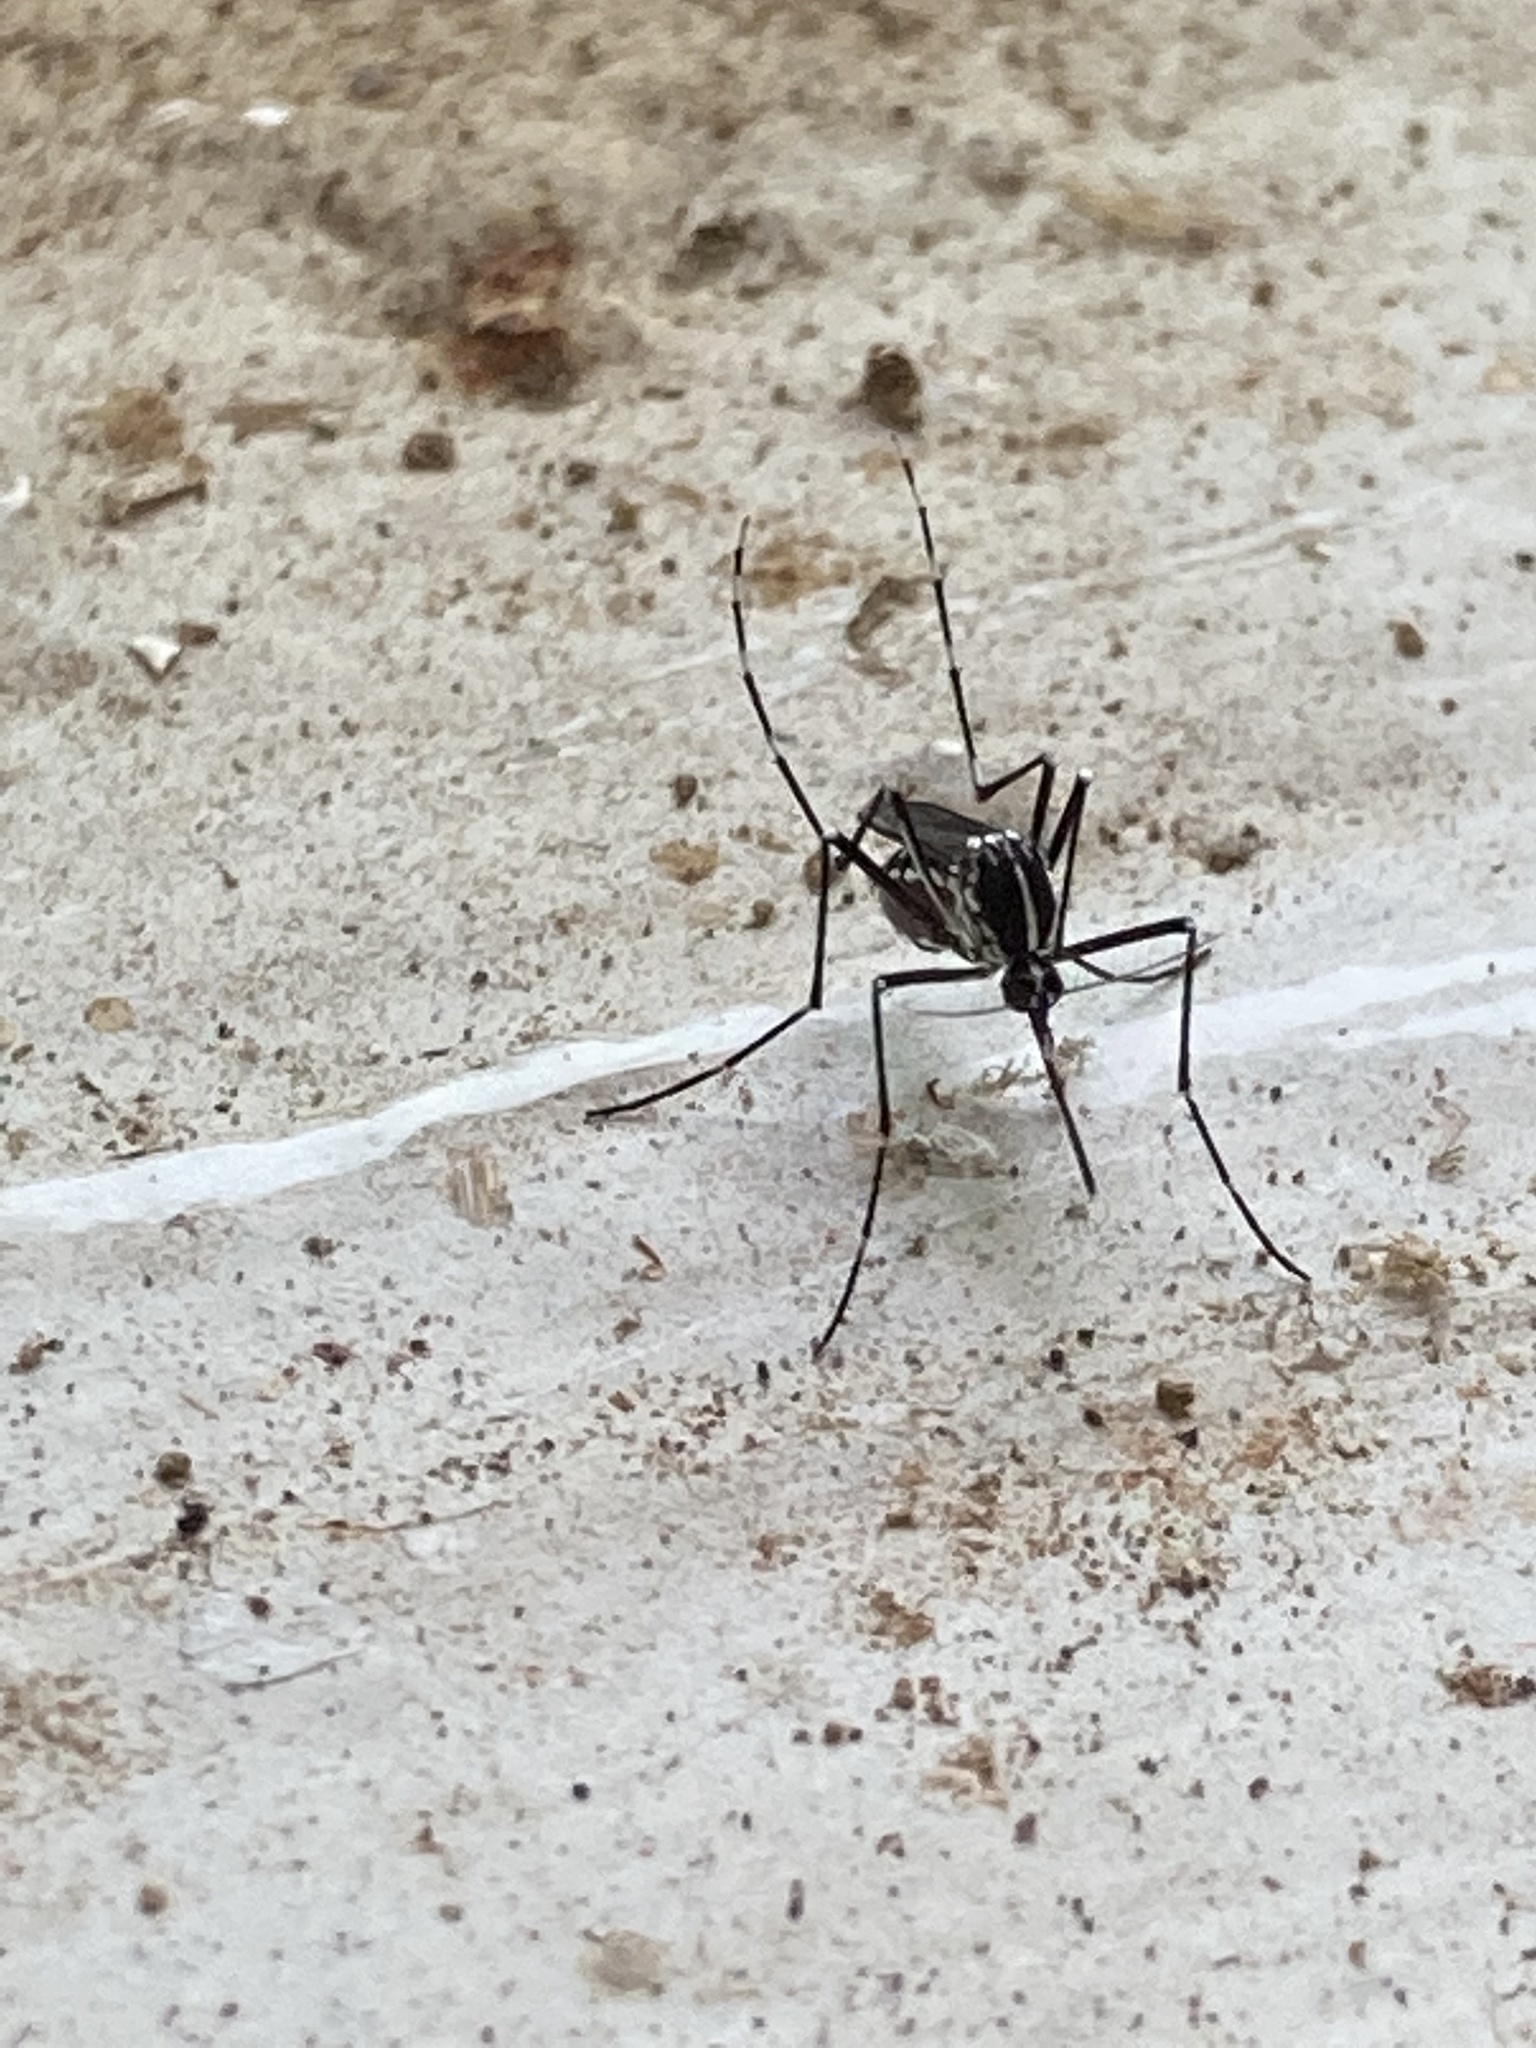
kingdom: Animalia
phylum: Arthropoda
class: Insecta
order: Diptera
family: Culicidae
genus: Aedes
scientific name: Aedes albopictus
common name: Tiger mosquito
